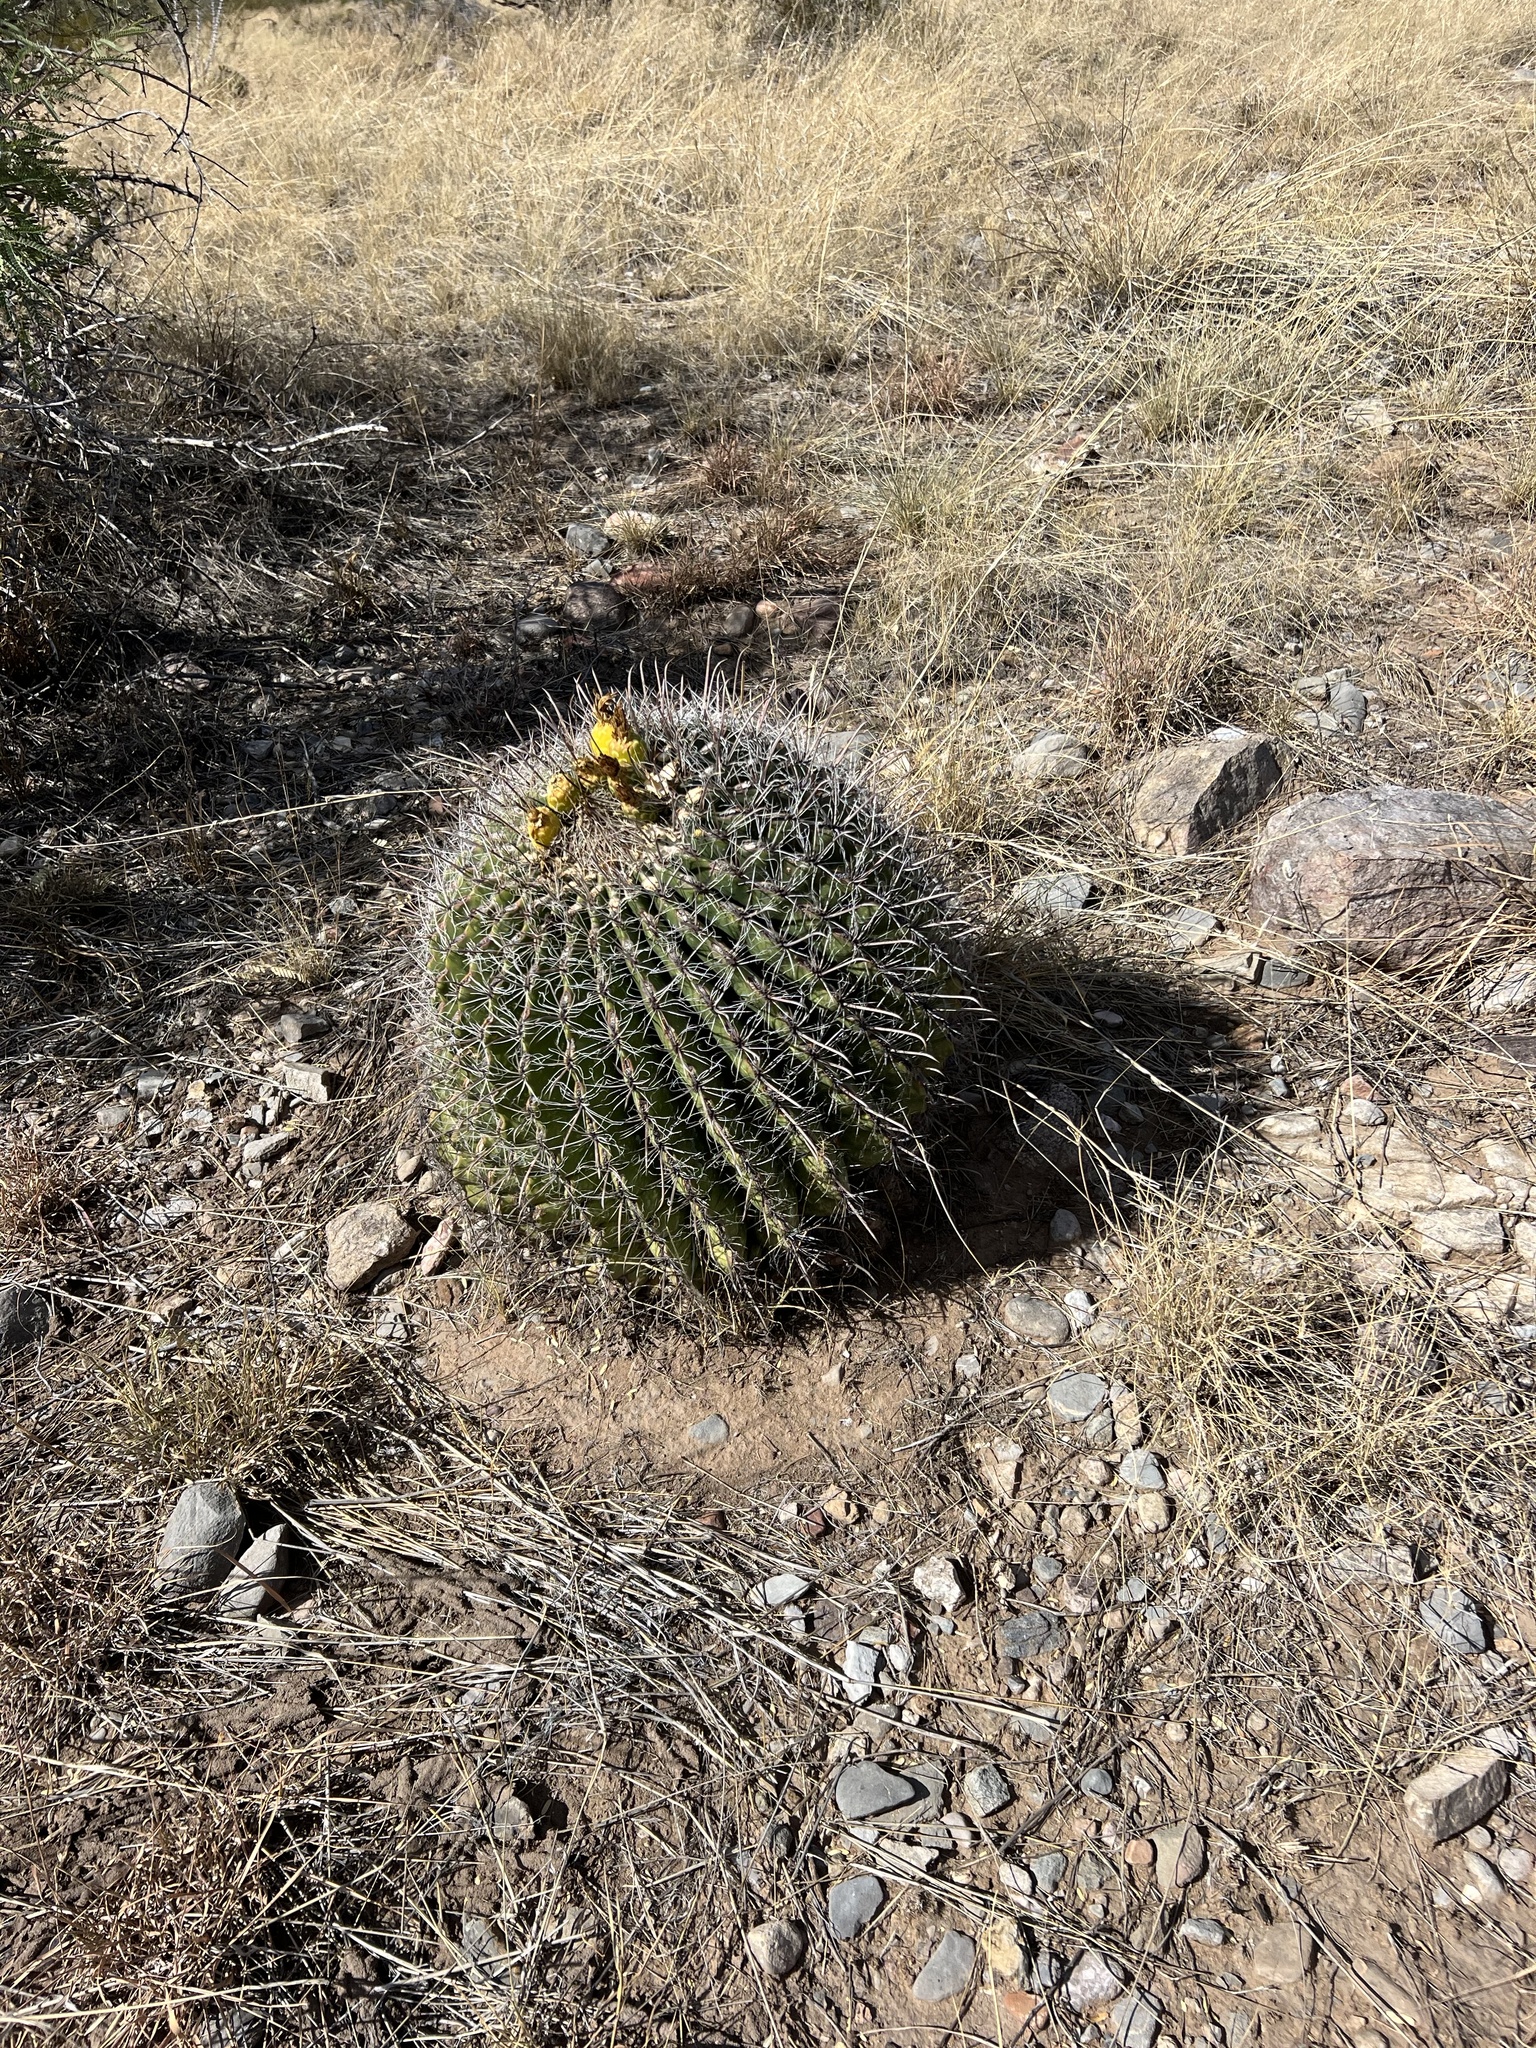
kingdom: Plantae
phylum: Tracheophyta
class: Magnoliopsida
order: Caryophyllales
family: Cactaceae
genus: Ferocactus
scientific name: Ferocactus wislizeni
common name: Candy barrel cactus
